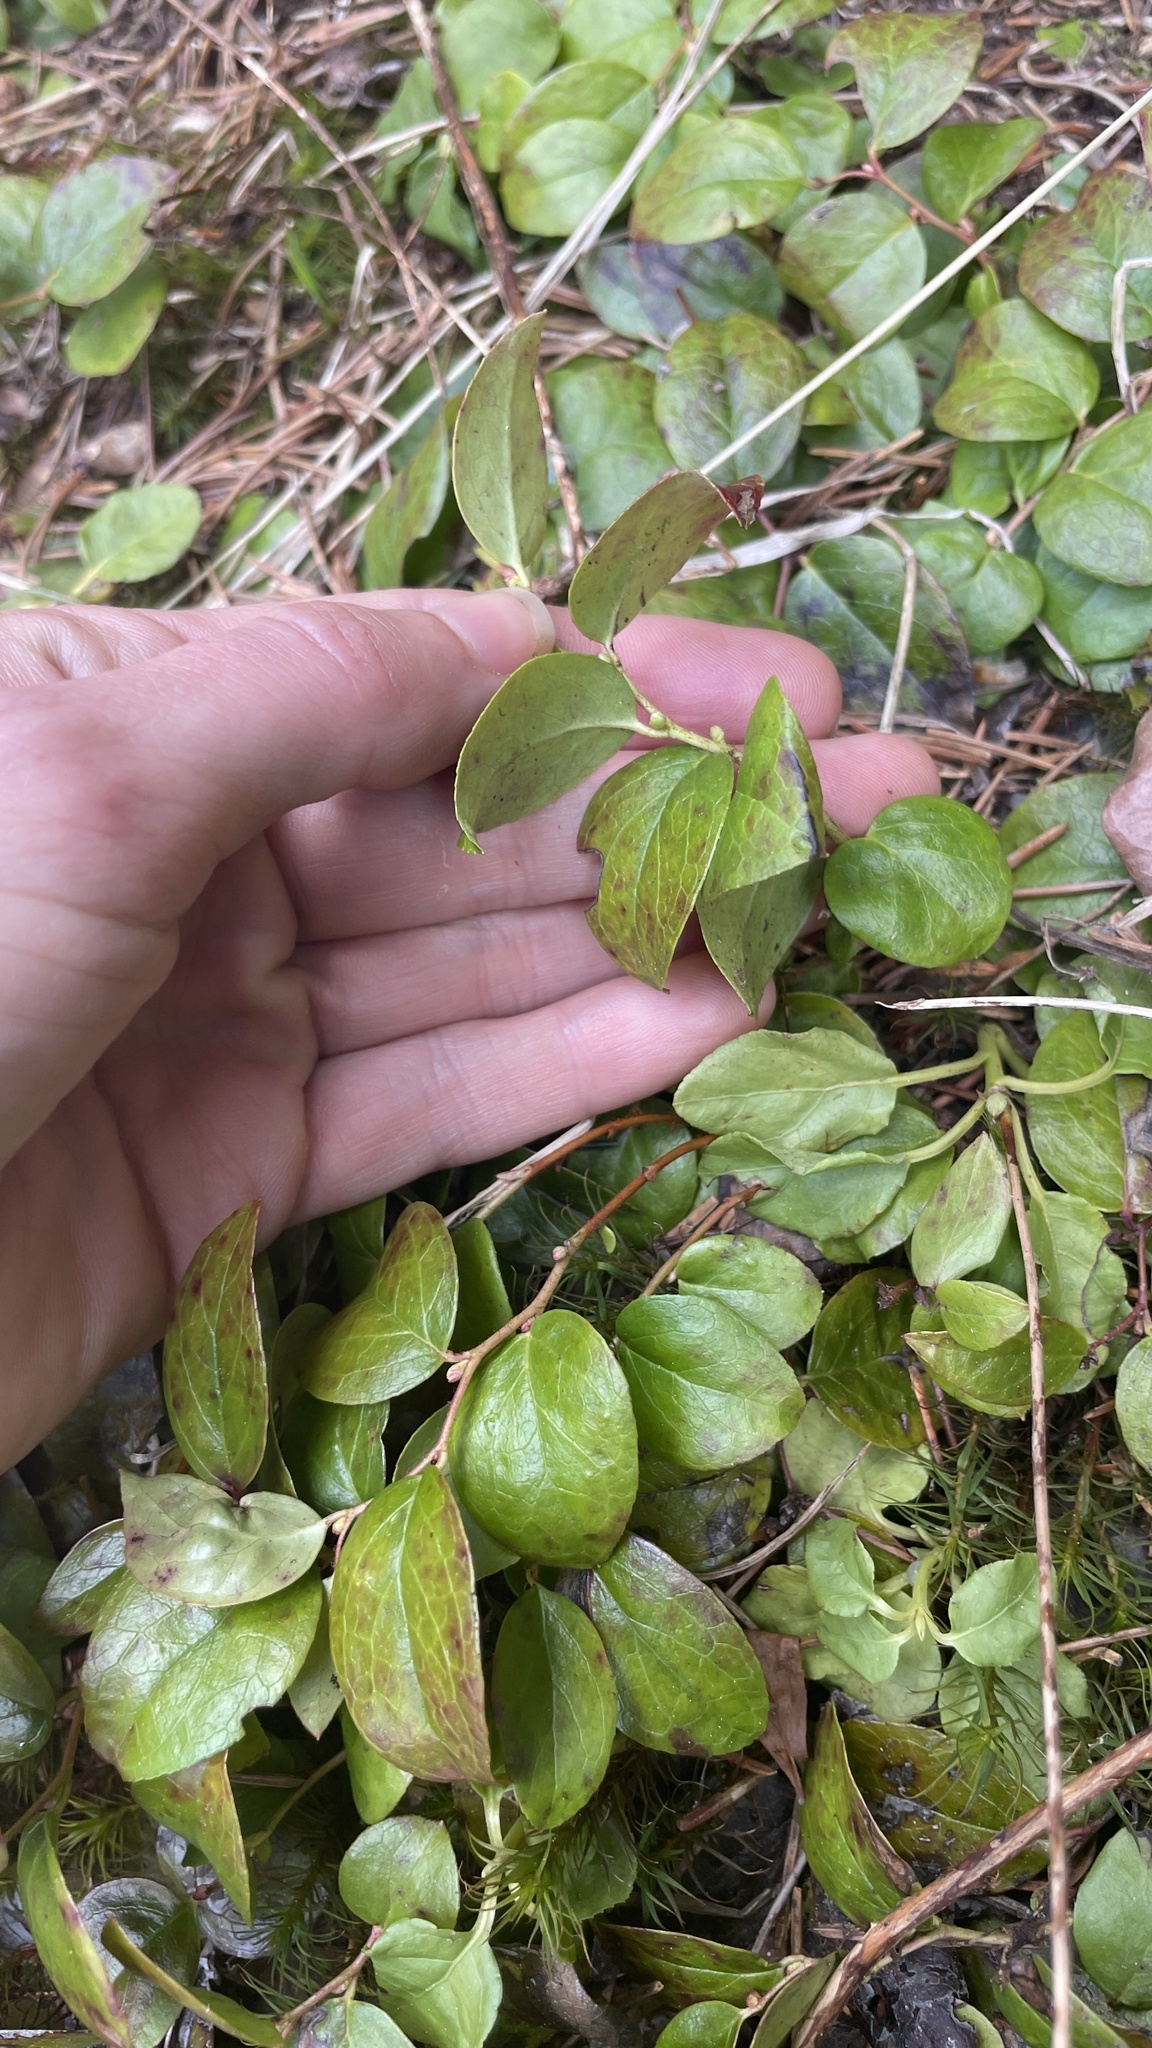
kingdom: Plantae
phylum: Tracheophyta
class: Magnoliopsida
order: Ericales
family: Ericaceae
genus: Gaultheria
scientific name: Gaultheria ovatifolia
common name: Oregon wintergreen
